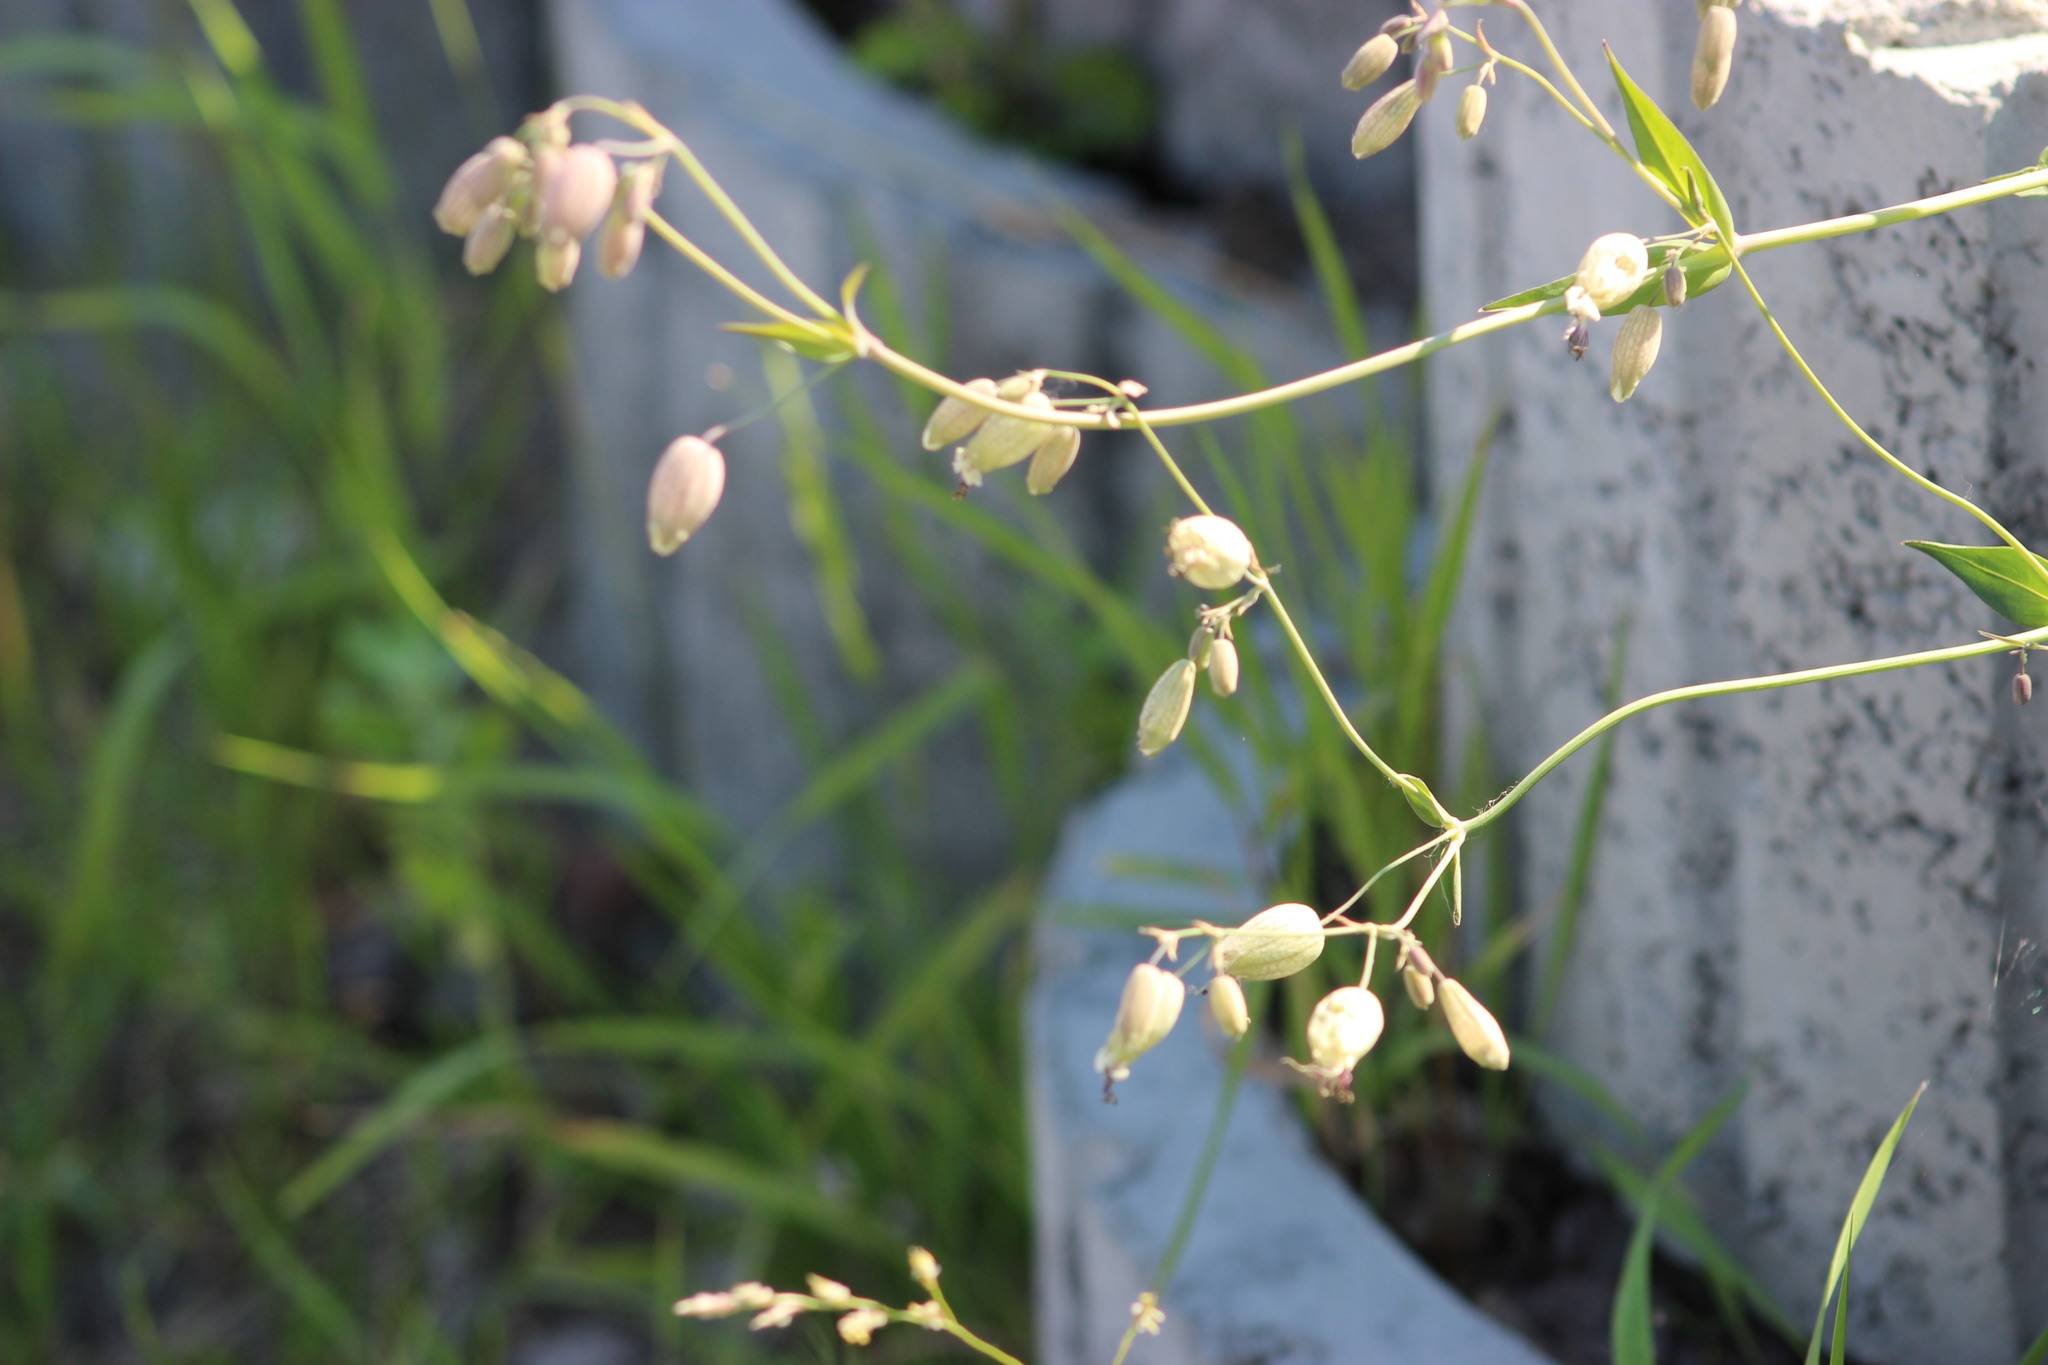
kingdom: Plantae
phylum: Tracheophyta
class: Magnoliopsida
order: Caryophyllales
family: Caryophyllaceae
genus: Silene
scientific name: Silene vulgaris
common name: Bladder campion
